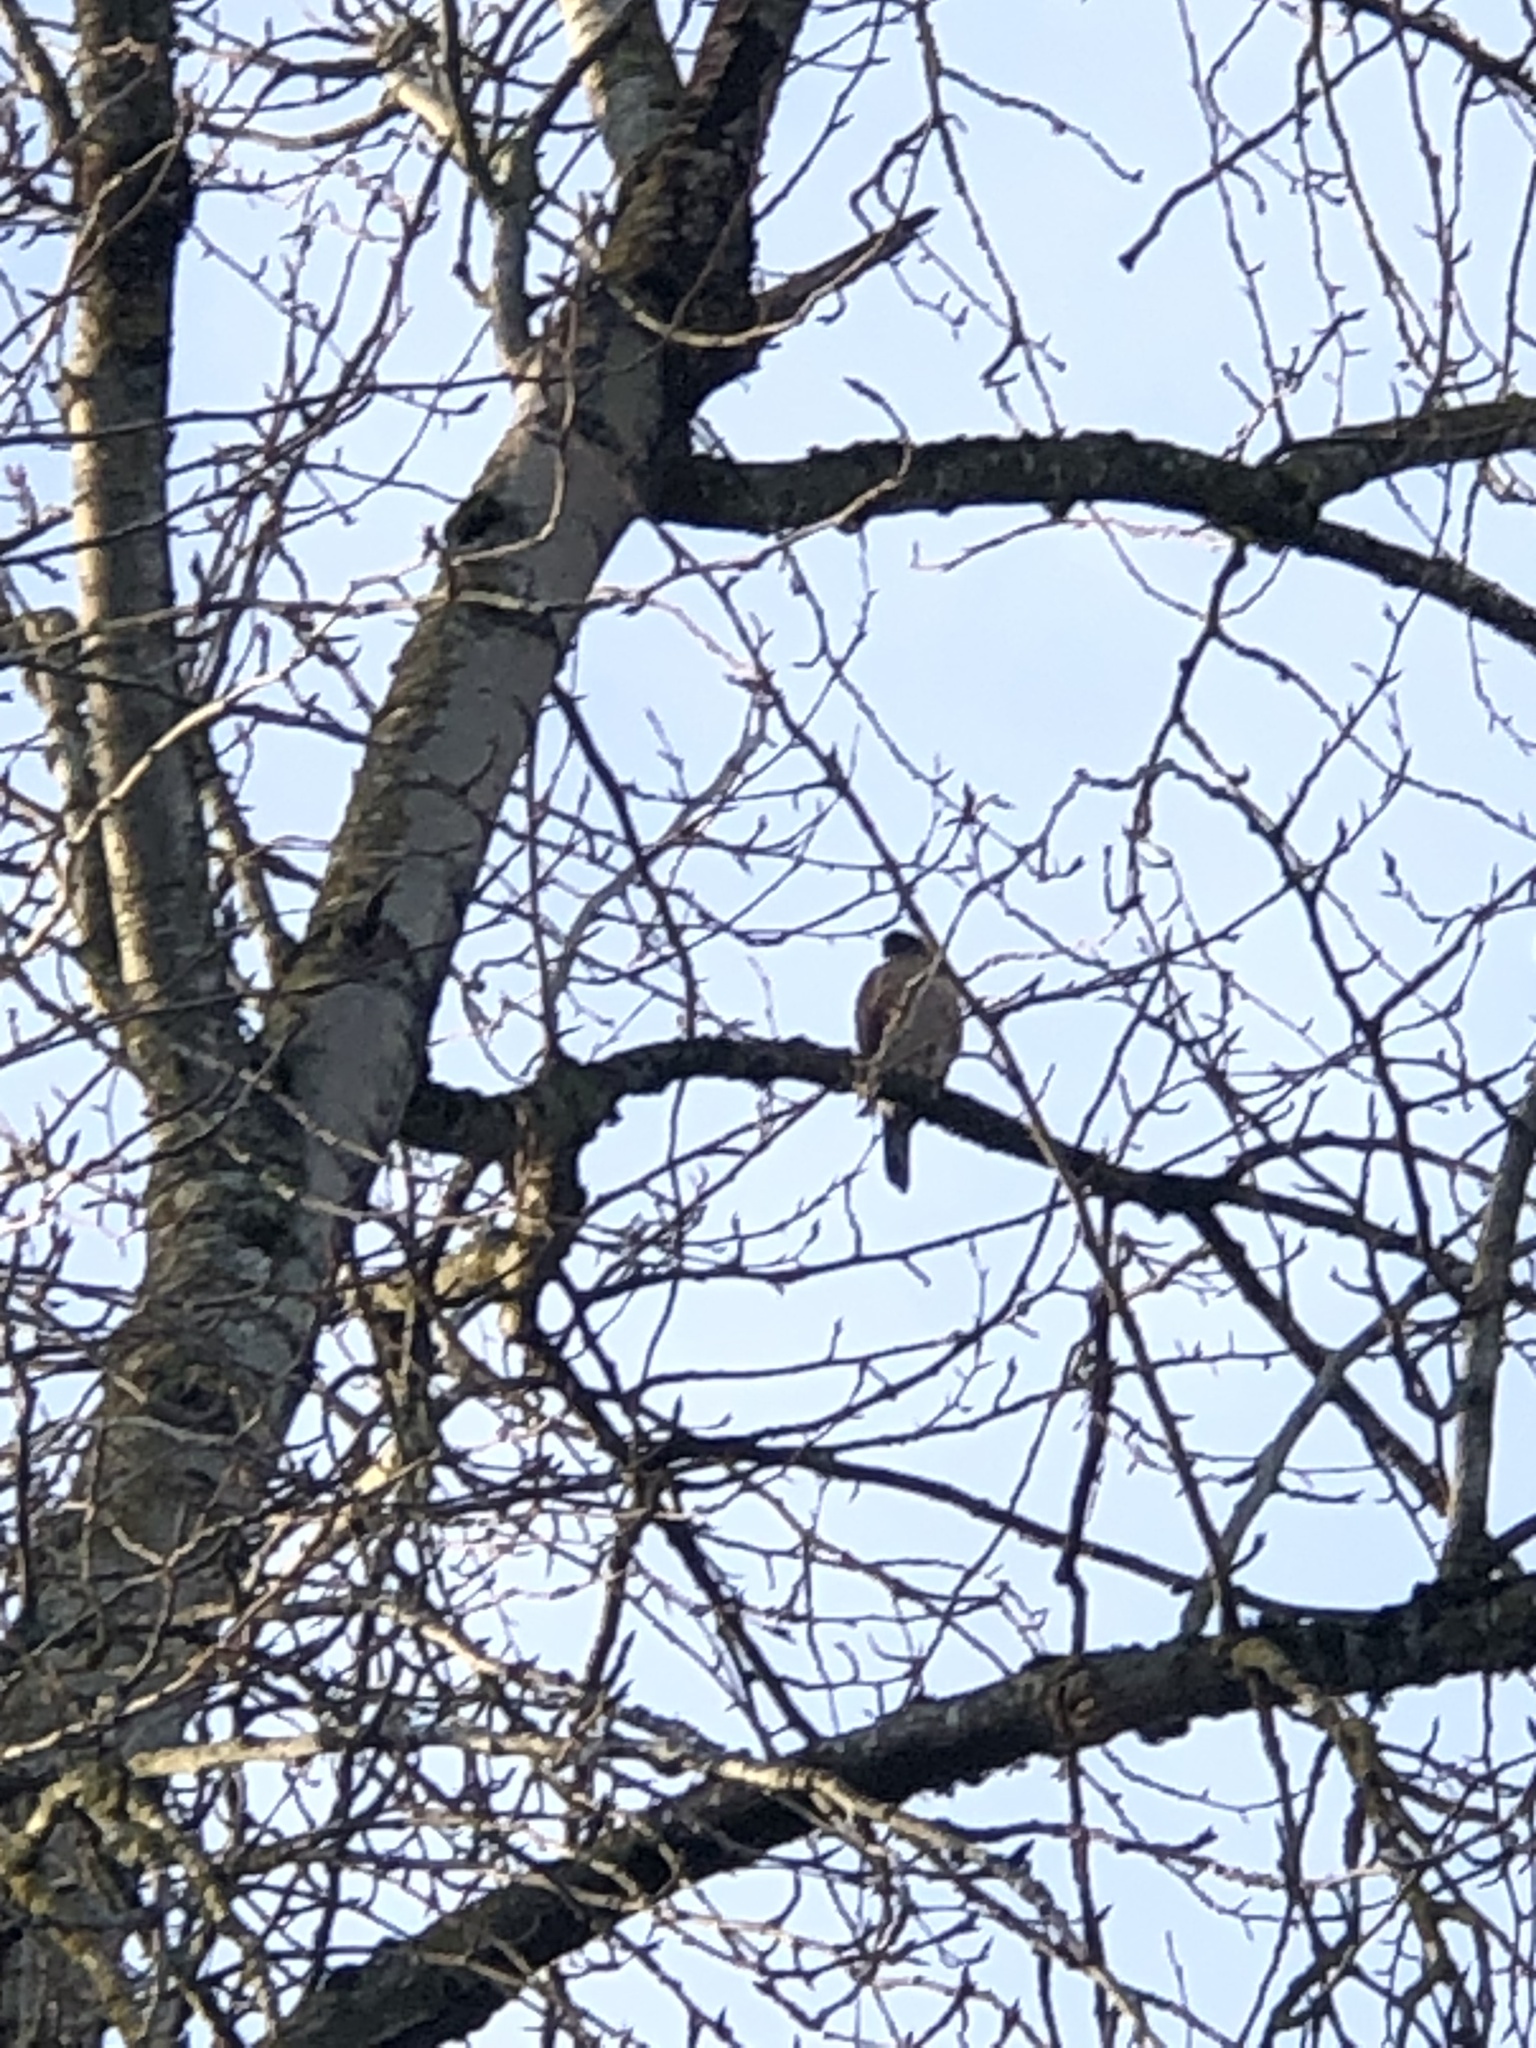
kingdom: Animalia
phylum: Chordata
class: Aves
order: Accipitriformes
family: Accipitridae
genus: Accipiter
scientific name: Accipiter
